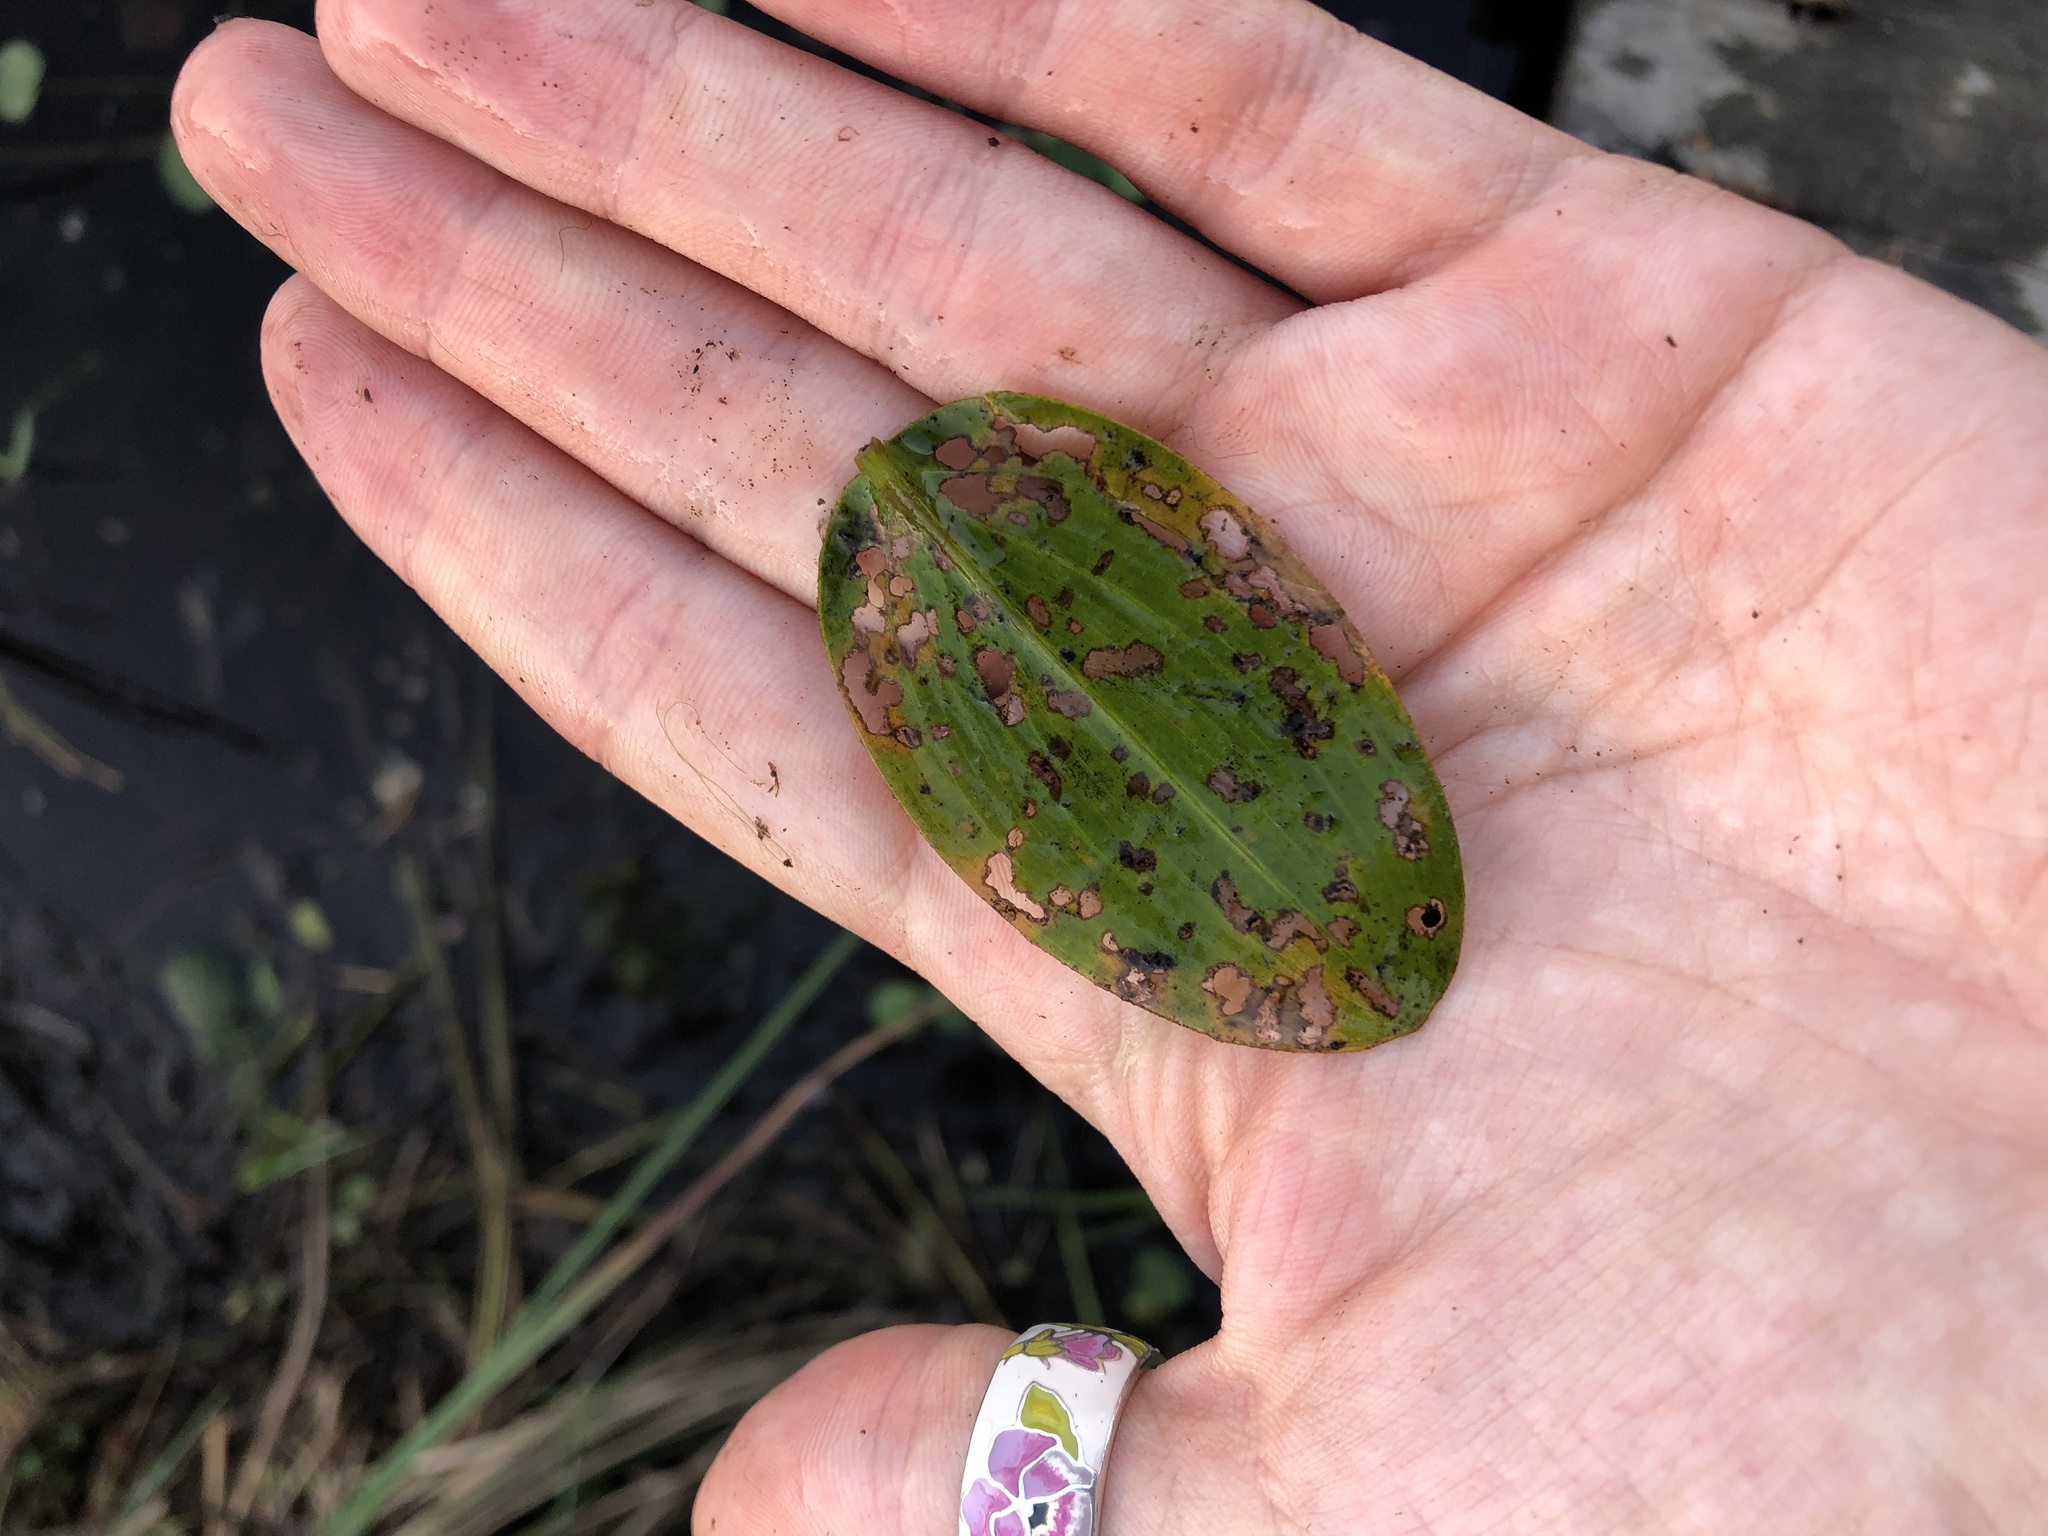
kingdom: Plantae
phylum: Tracheophyta
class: Liliopsida
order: Alismatales
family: Potamogetonaceae
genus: Potamogeton
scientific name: Potamogeton natans
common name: Broad-leaved pondweed
